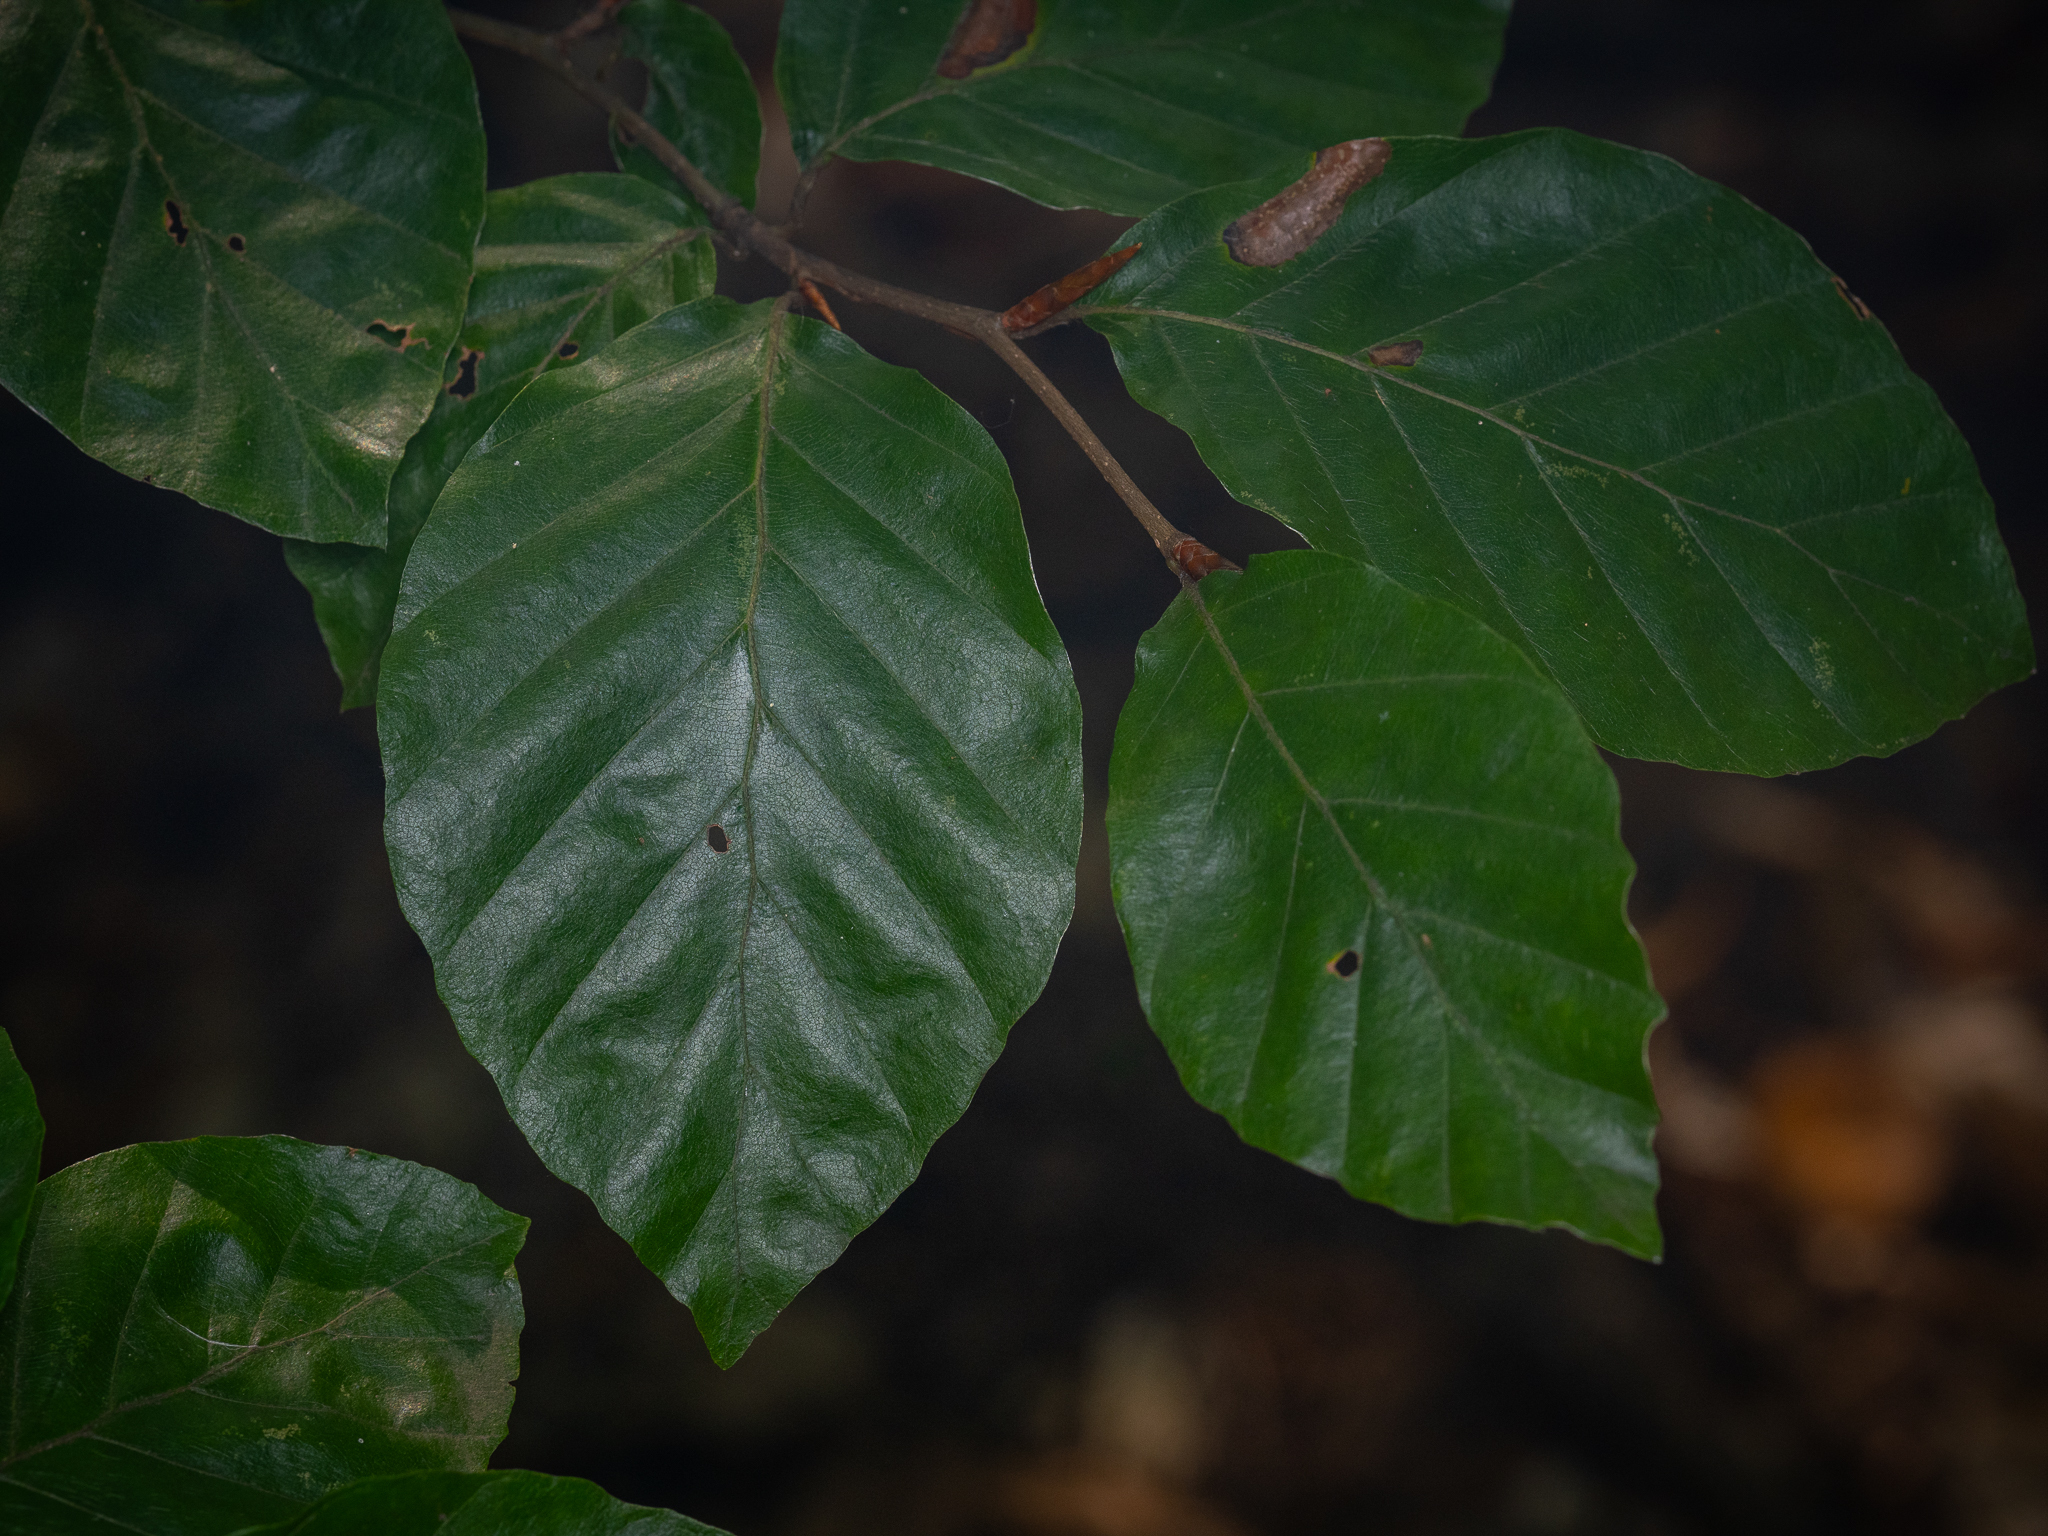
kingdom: Plantae
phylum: Tracheophyta
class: Magnoliopsida
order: Fagales
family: Fagaceae
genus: Fagus
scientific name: Fagus sylvatica
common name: Beech
